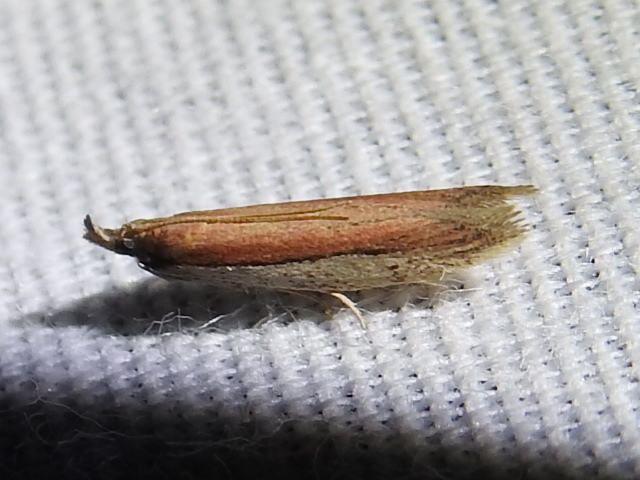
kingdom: Animalia
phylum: Arthropoda
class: Insecta
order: Lepidoptera
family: Pyralidae
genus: Tampa
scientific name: Tampa dimediatella
